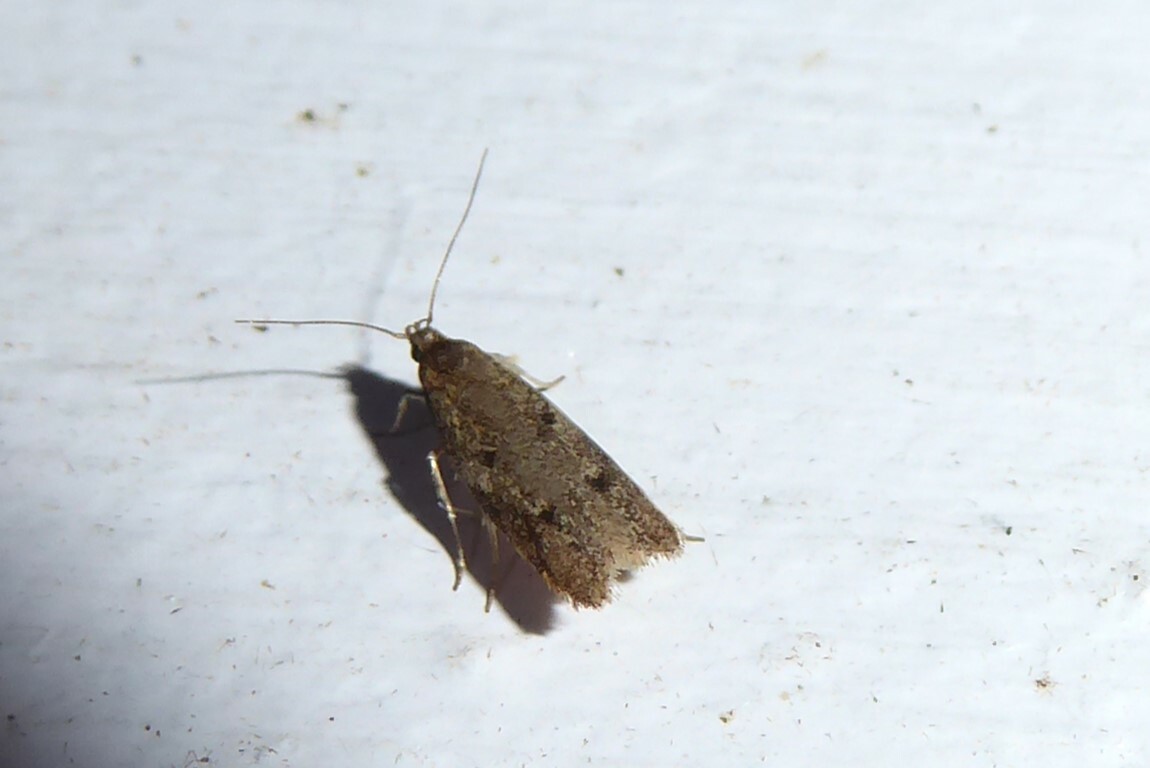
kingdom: Animalia
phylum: Arthropoda
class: Insecta
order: Lepidoptera
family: Oecophoridae
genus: Gymnobathra
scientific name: Gymnobathra tholodella
